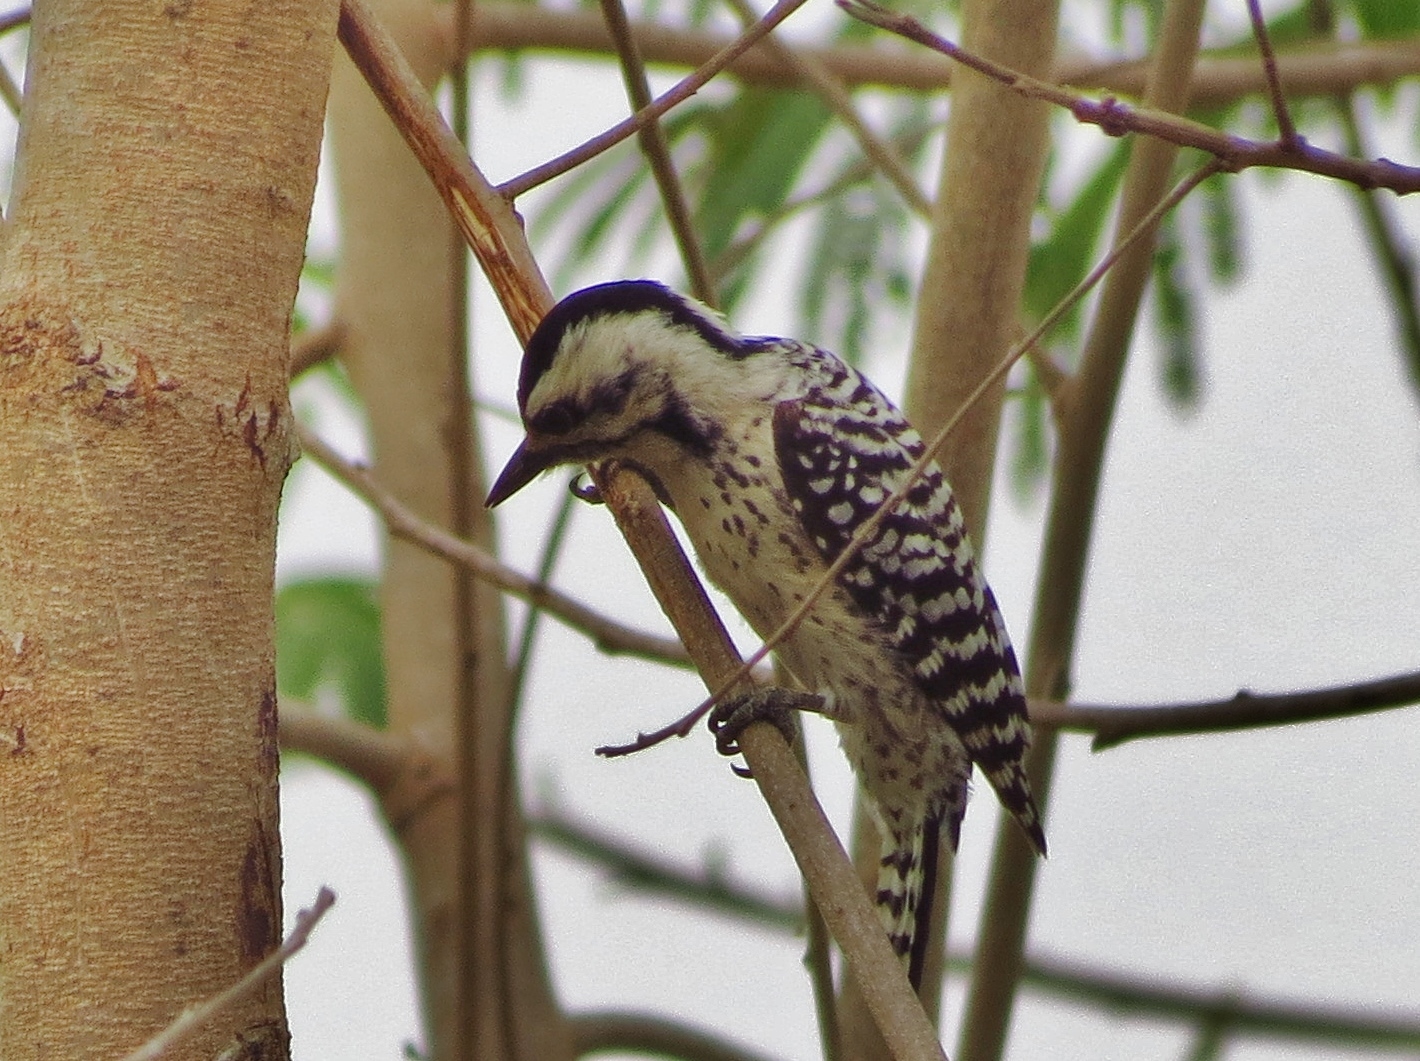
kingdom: Animalia
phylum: Chordata
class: Aves
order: Piciformes
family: Picidae
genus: Dryobates
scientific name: Dryobates scalaris
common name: Ladder-backed woodpecker
